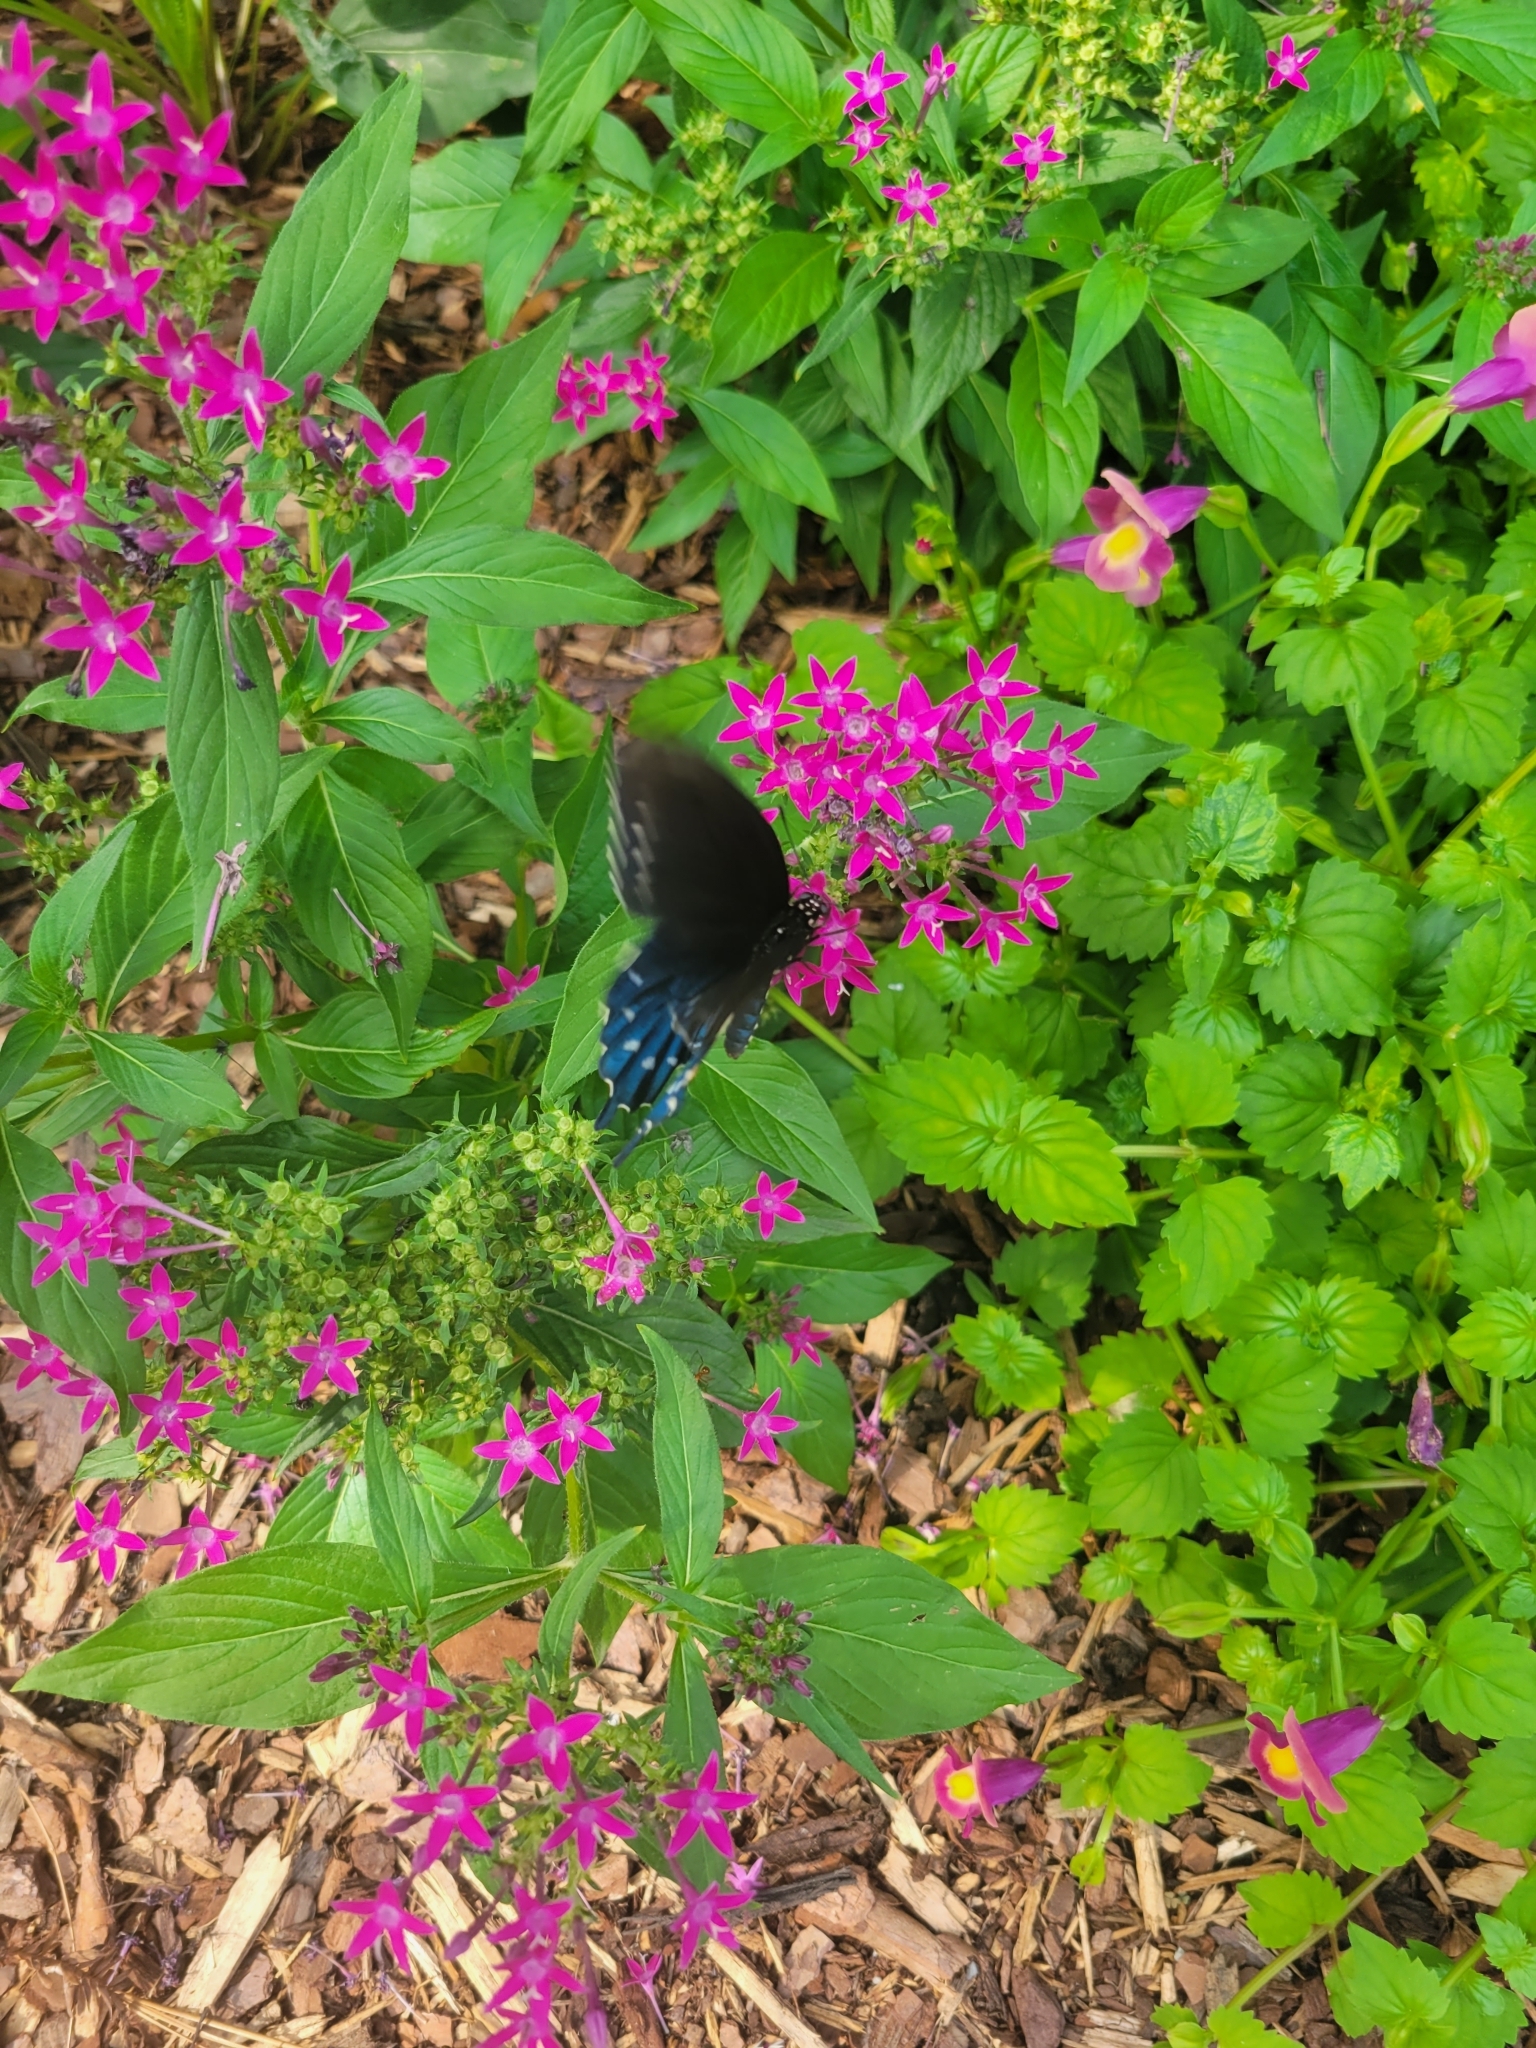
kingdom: Animalia
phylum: Arthropoda
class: Insecta
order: Lepidoptera
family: Papilionidae
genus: Battus
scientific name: Battus philenor
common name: Pipevine swallowtail
